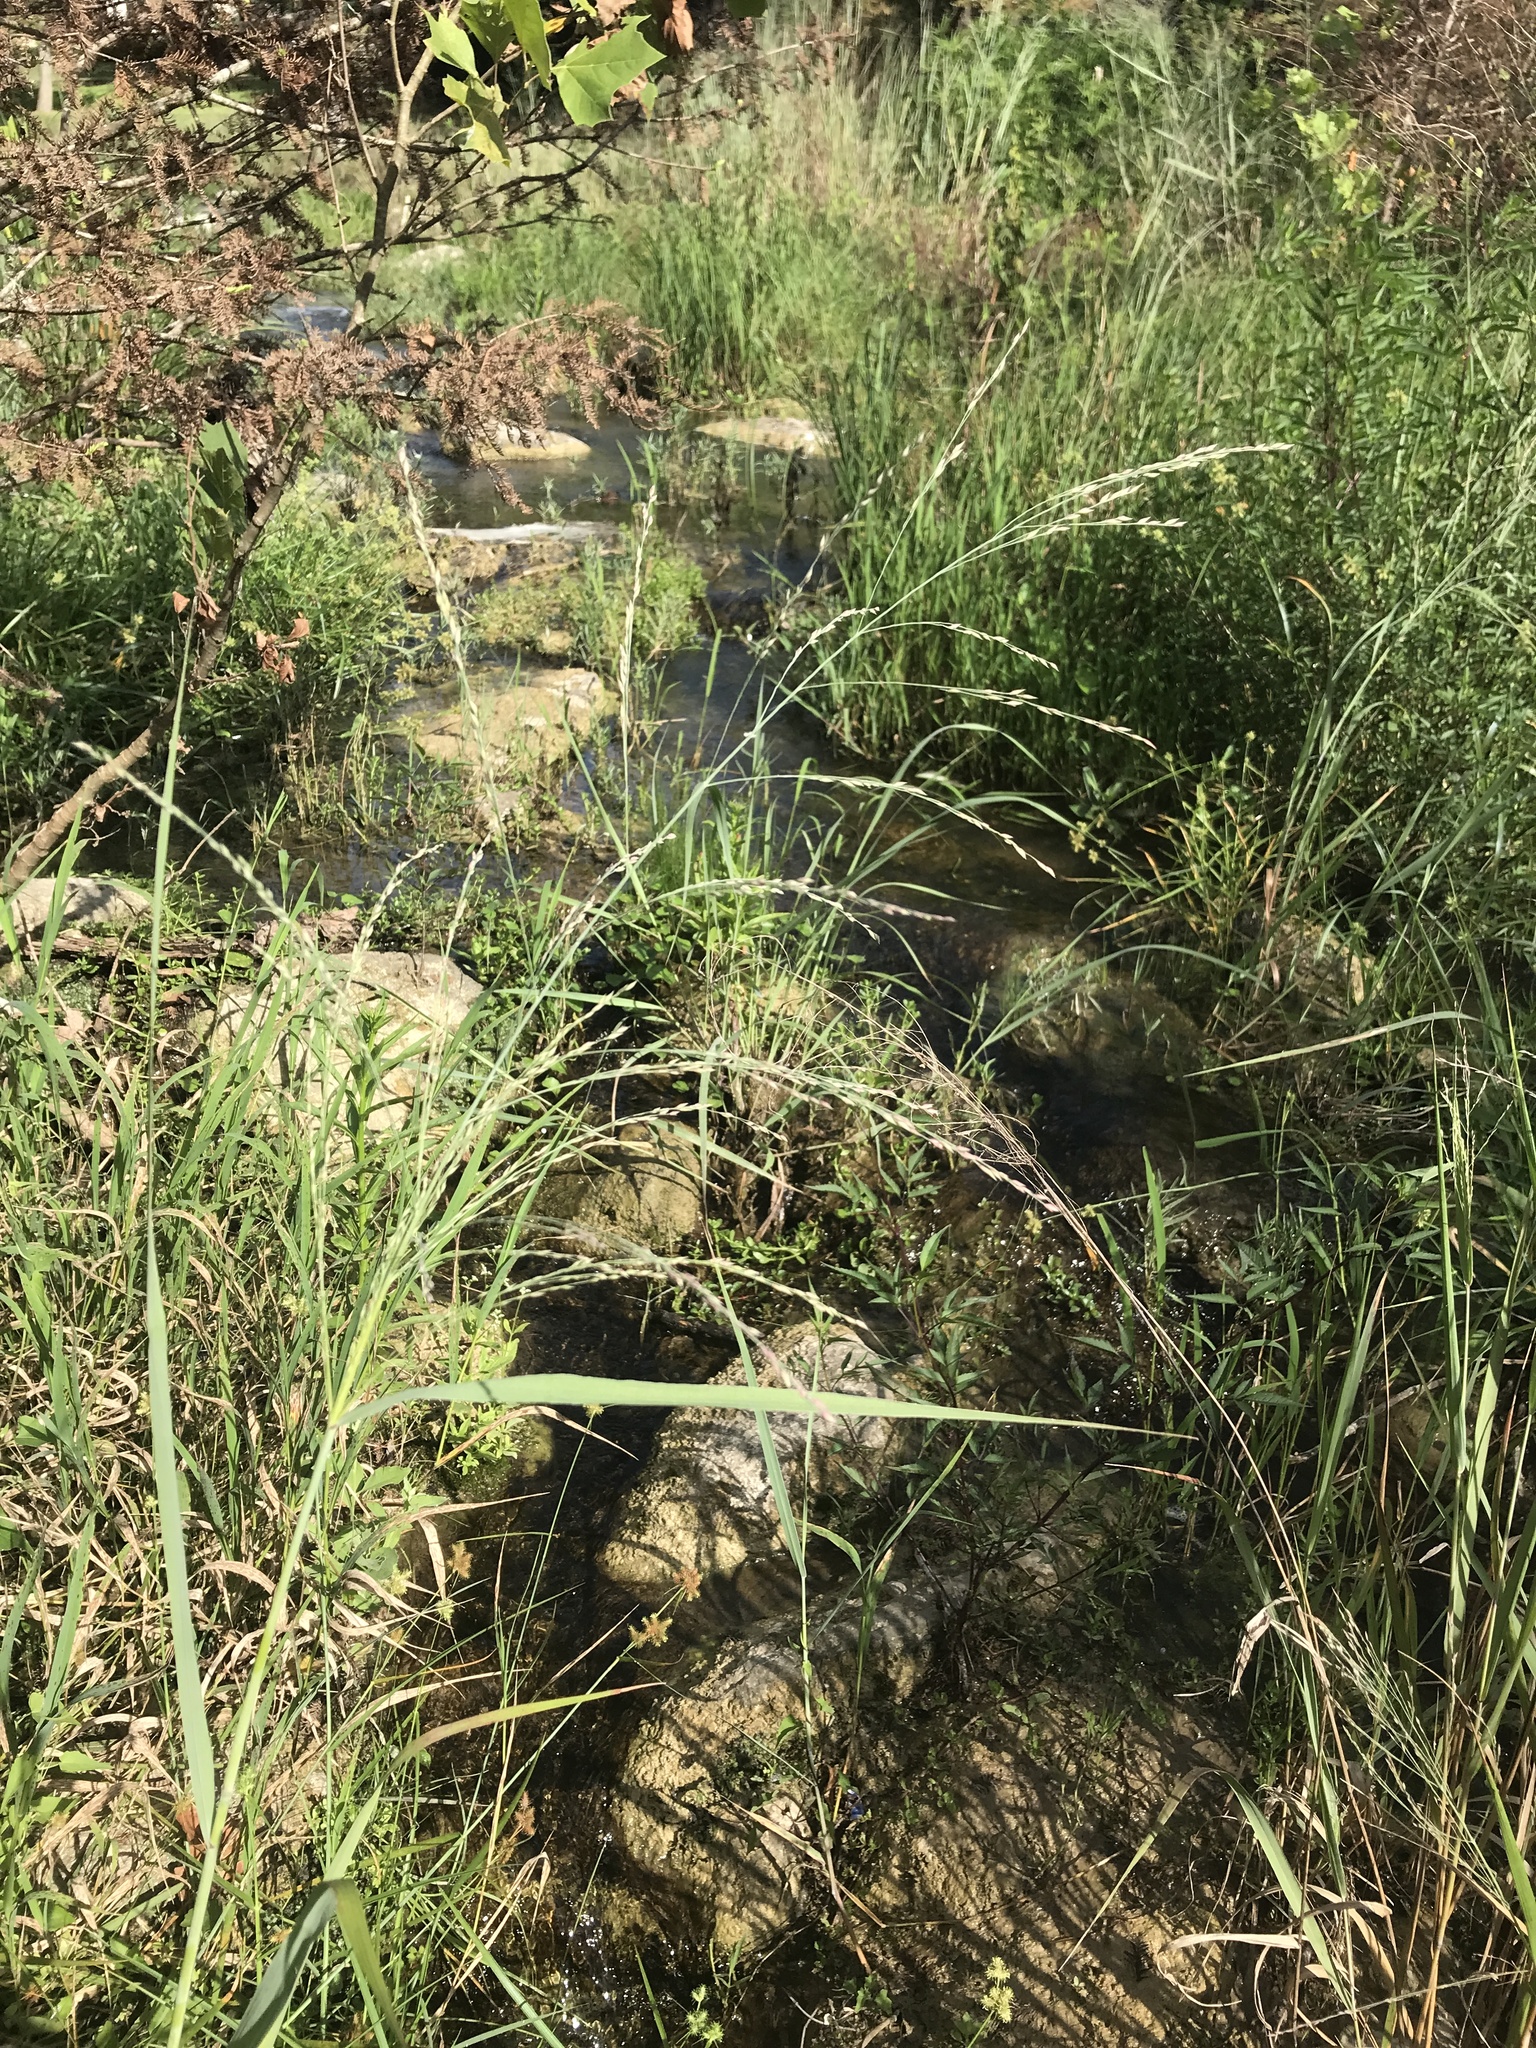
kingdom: Plantae
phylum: Tracheophyta
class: Liliopsida
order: Poales
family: Poaceae
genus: Panicum
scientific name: Panicum virgatum
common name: Switchgrass
